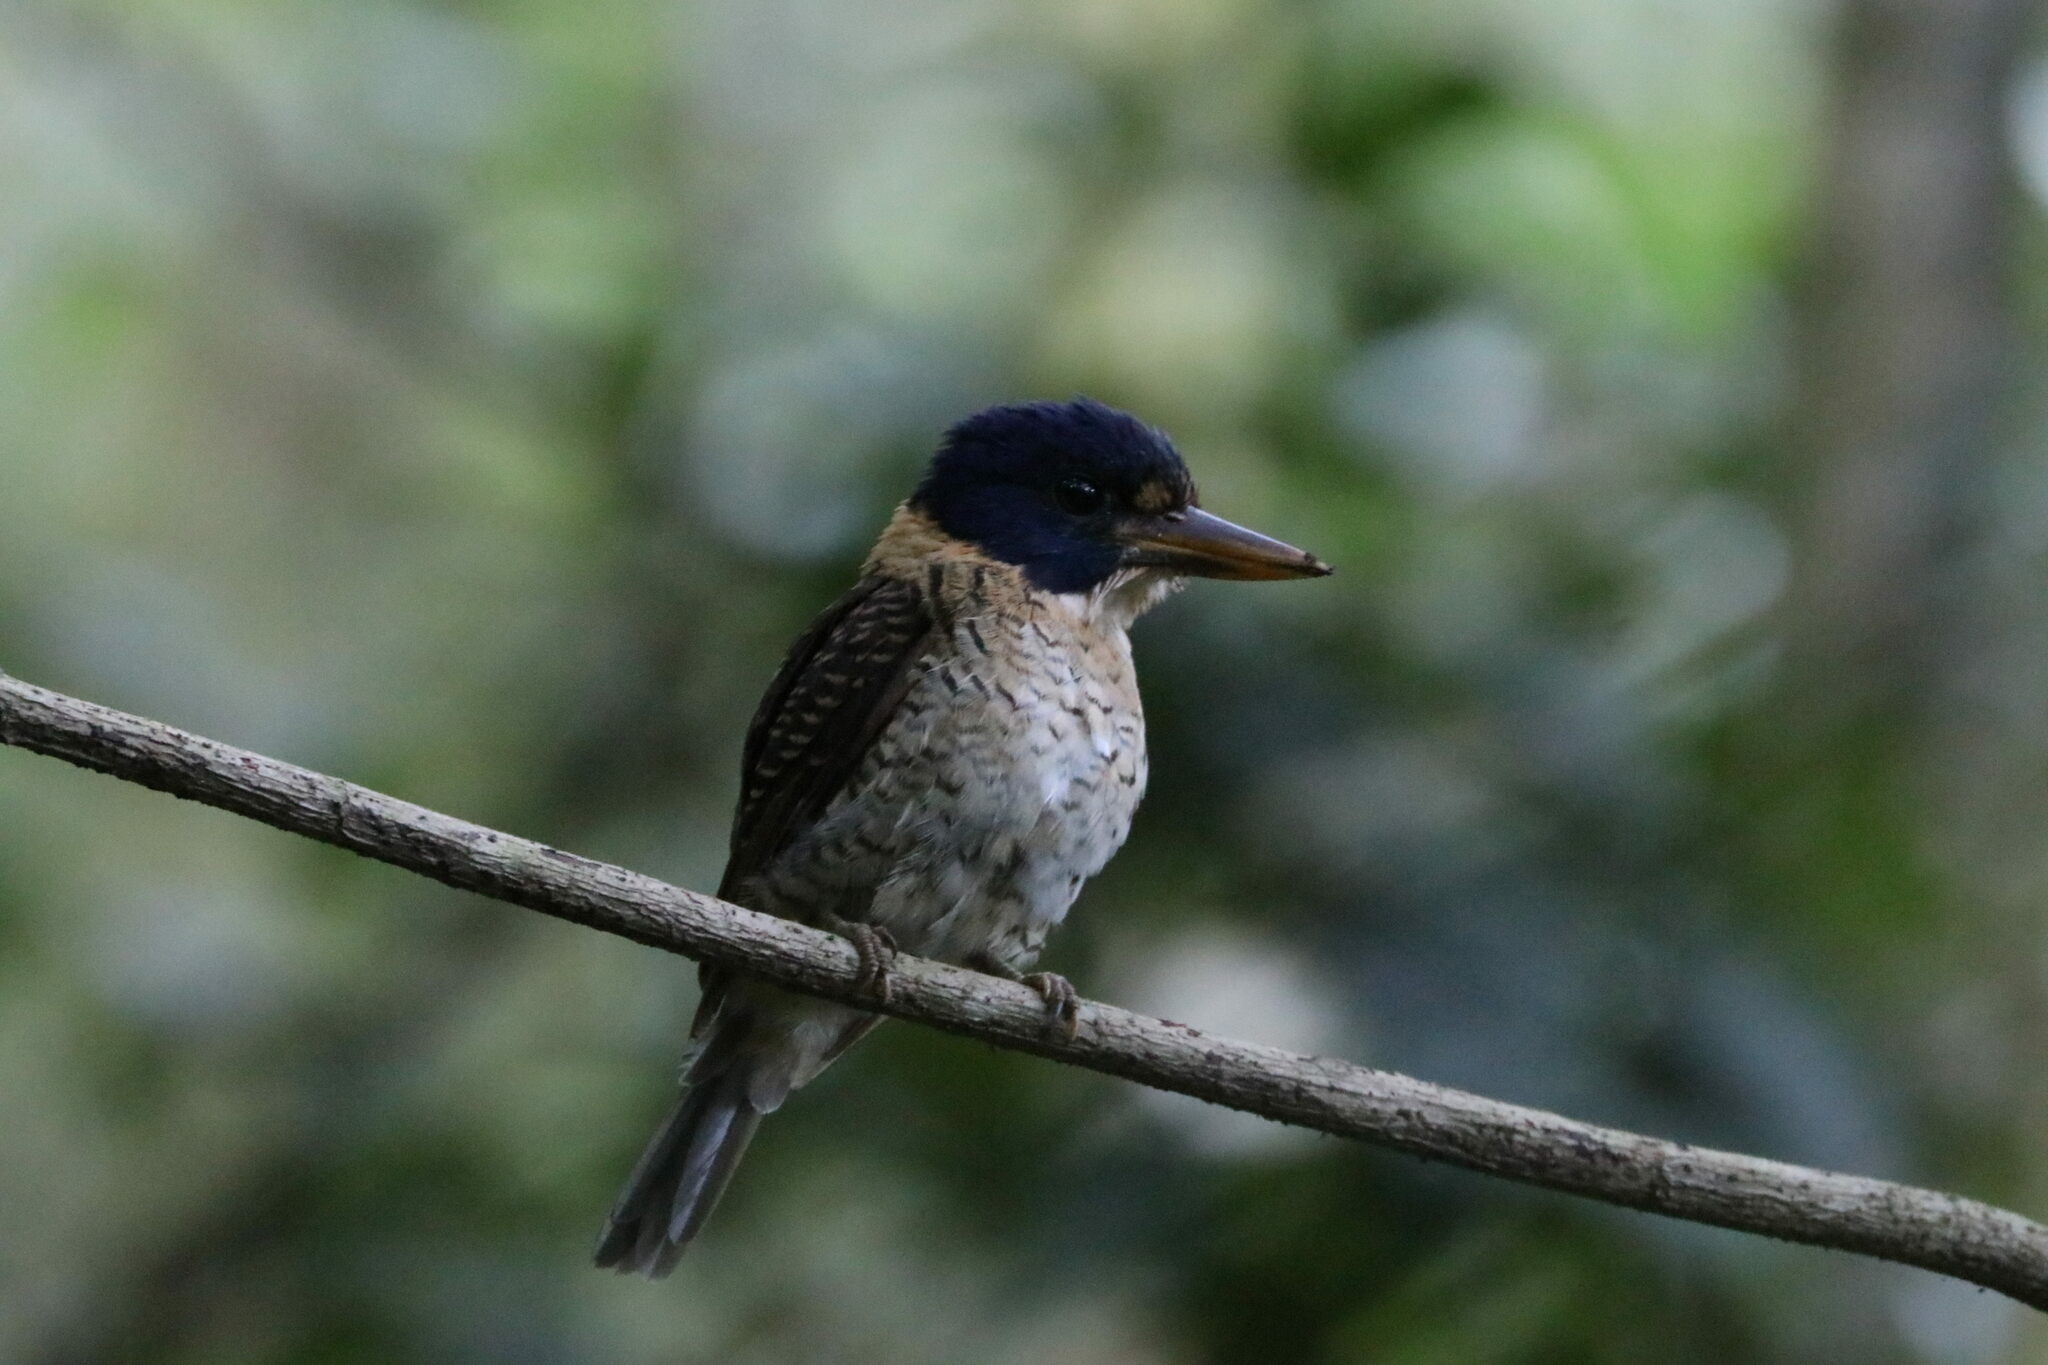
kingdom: Animalia
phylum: Chordata
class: Aves
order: Coraciiformes
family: Alcedinidae
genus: Actenoides
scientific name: Actenoides princeps
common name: Scaly-breasted kingfisher
